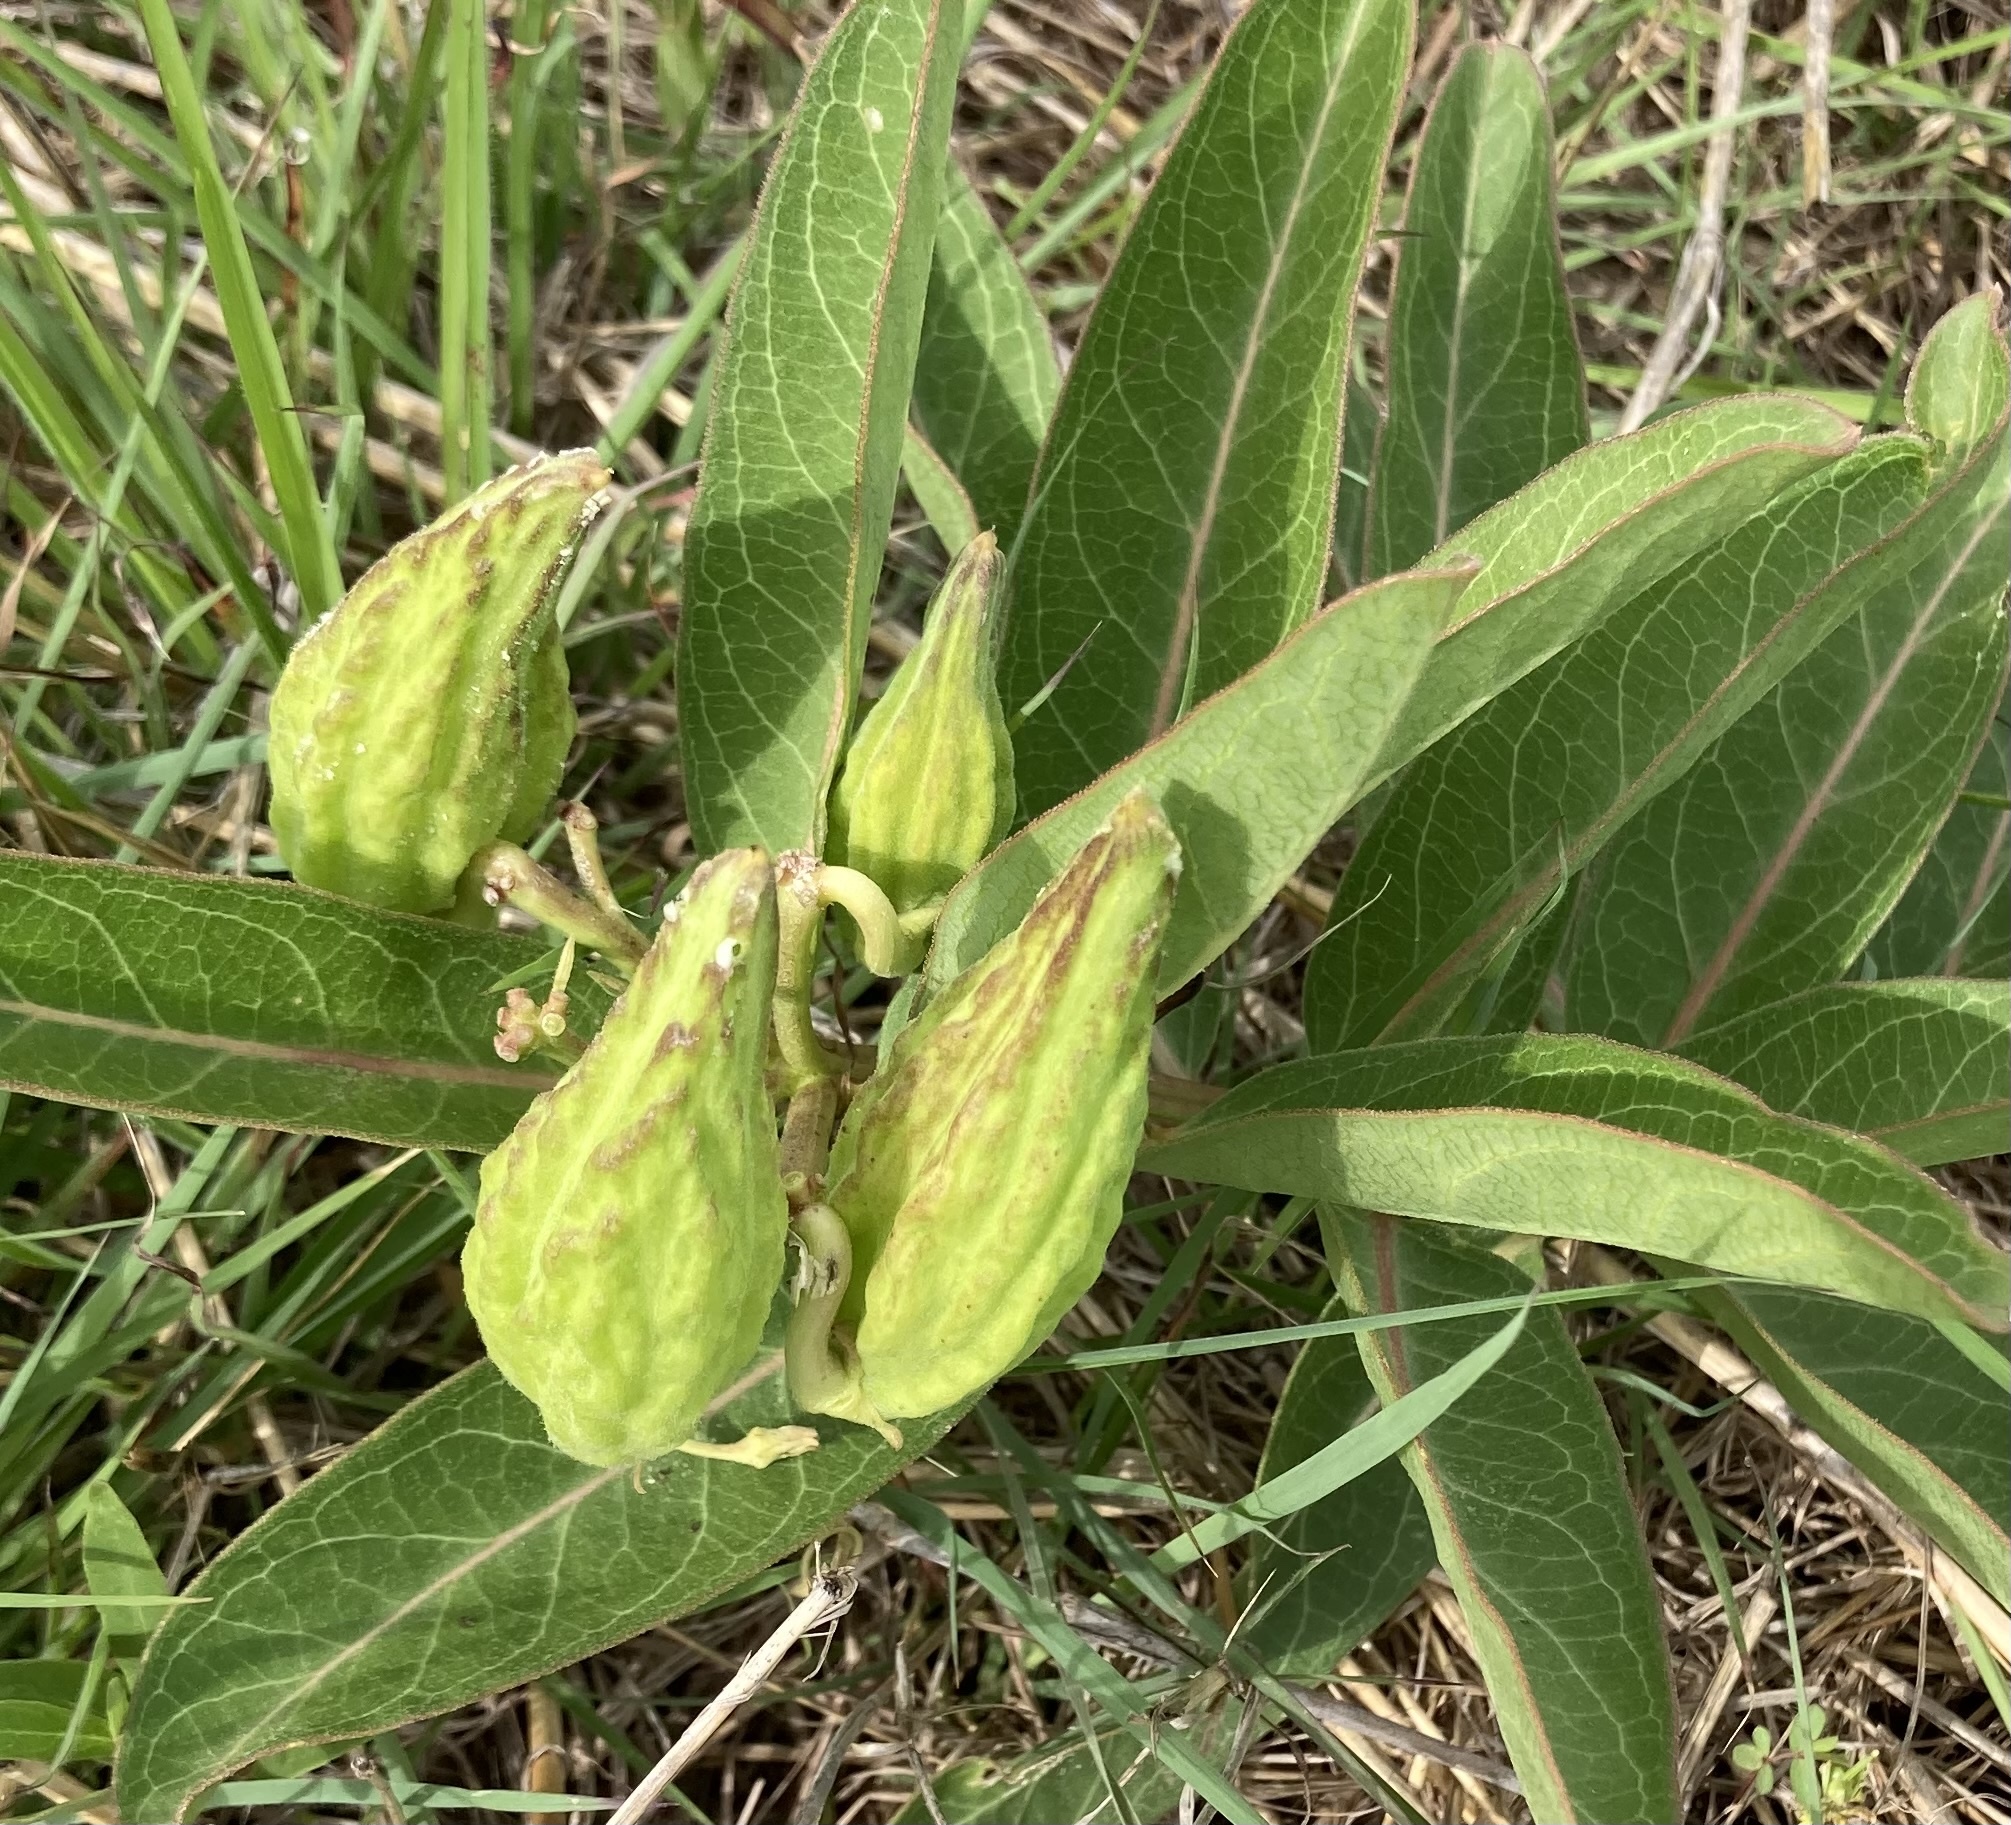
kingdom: Plantae
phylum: Tracheophyta
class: Magnoliopsida
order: Gentianales
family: Apocynaceae
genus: Asclepias
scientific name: Asclepias viridis
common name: Antelope-horns
